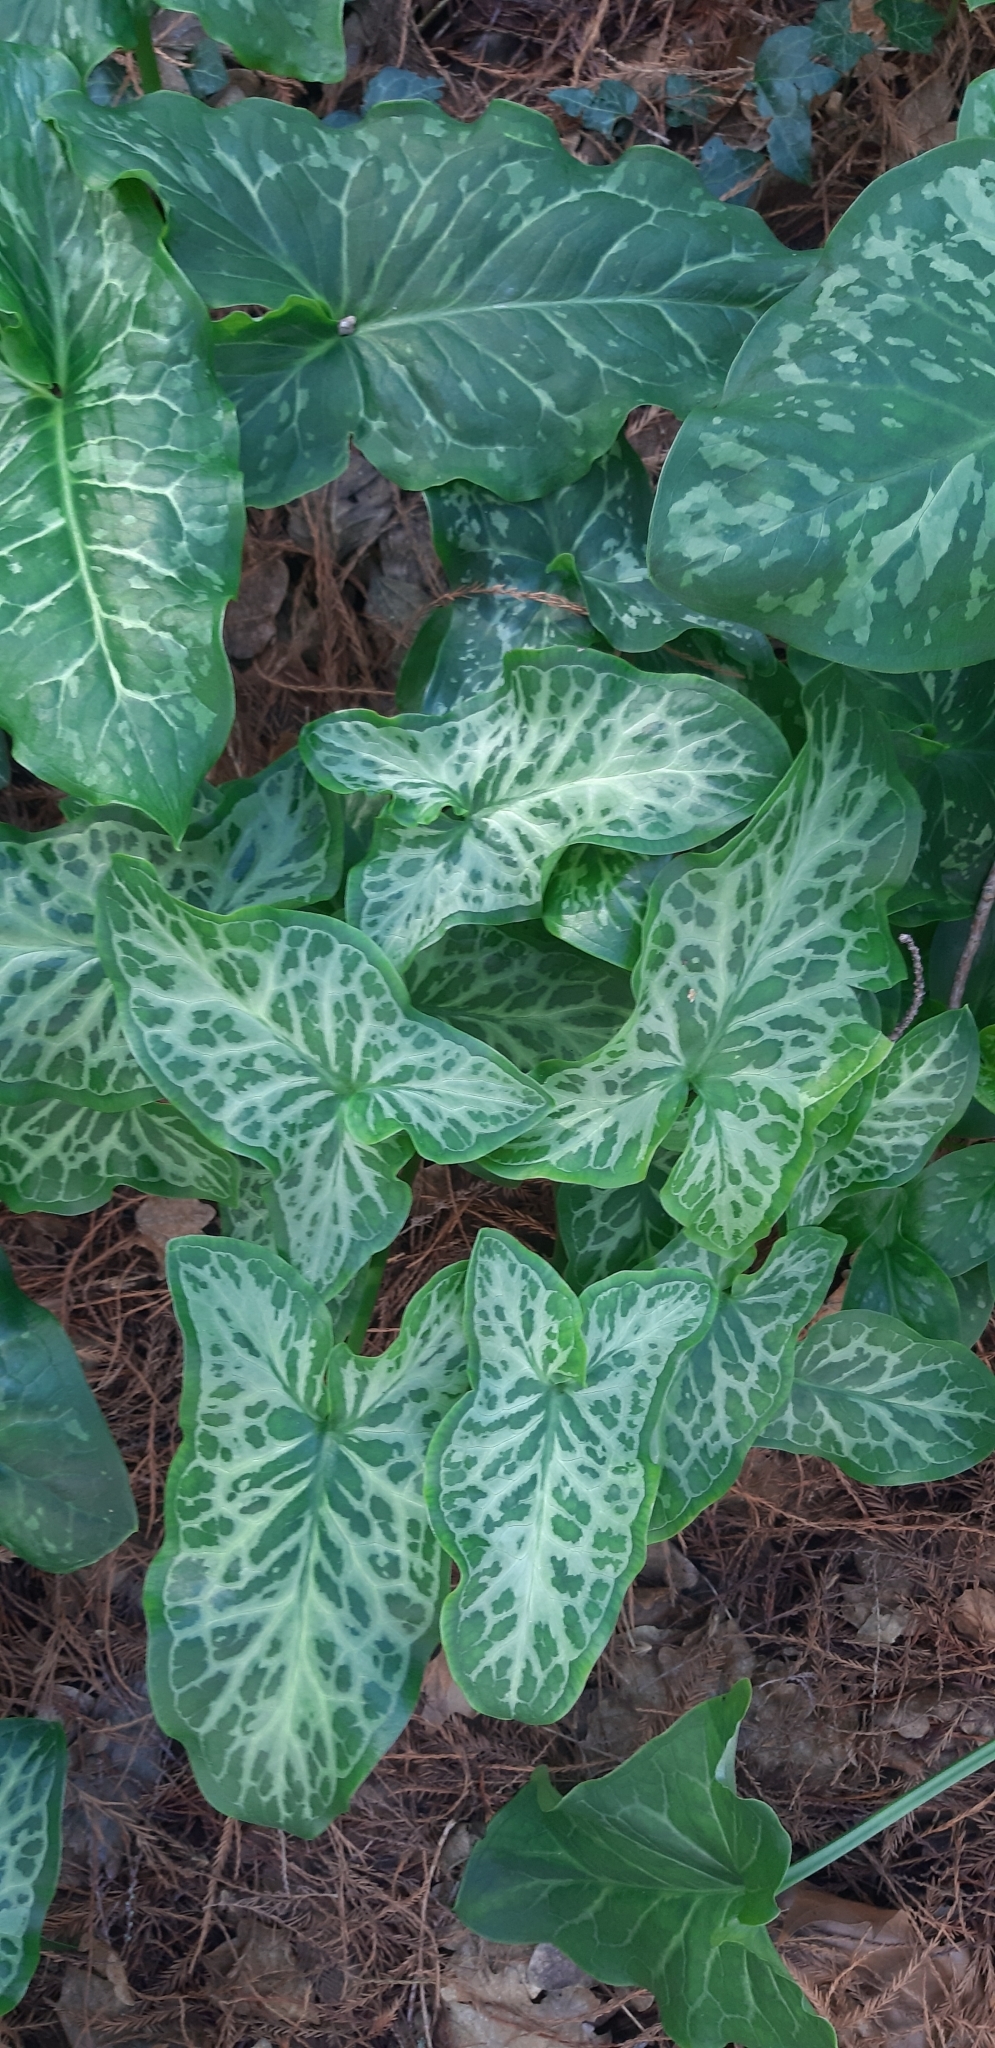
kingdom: Plantae
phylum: Tracheophyta
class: Liliopsida
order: Alismatales
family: Araceae
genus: Arum
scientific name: Arum italicum
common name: Italian lords-and-ladies
